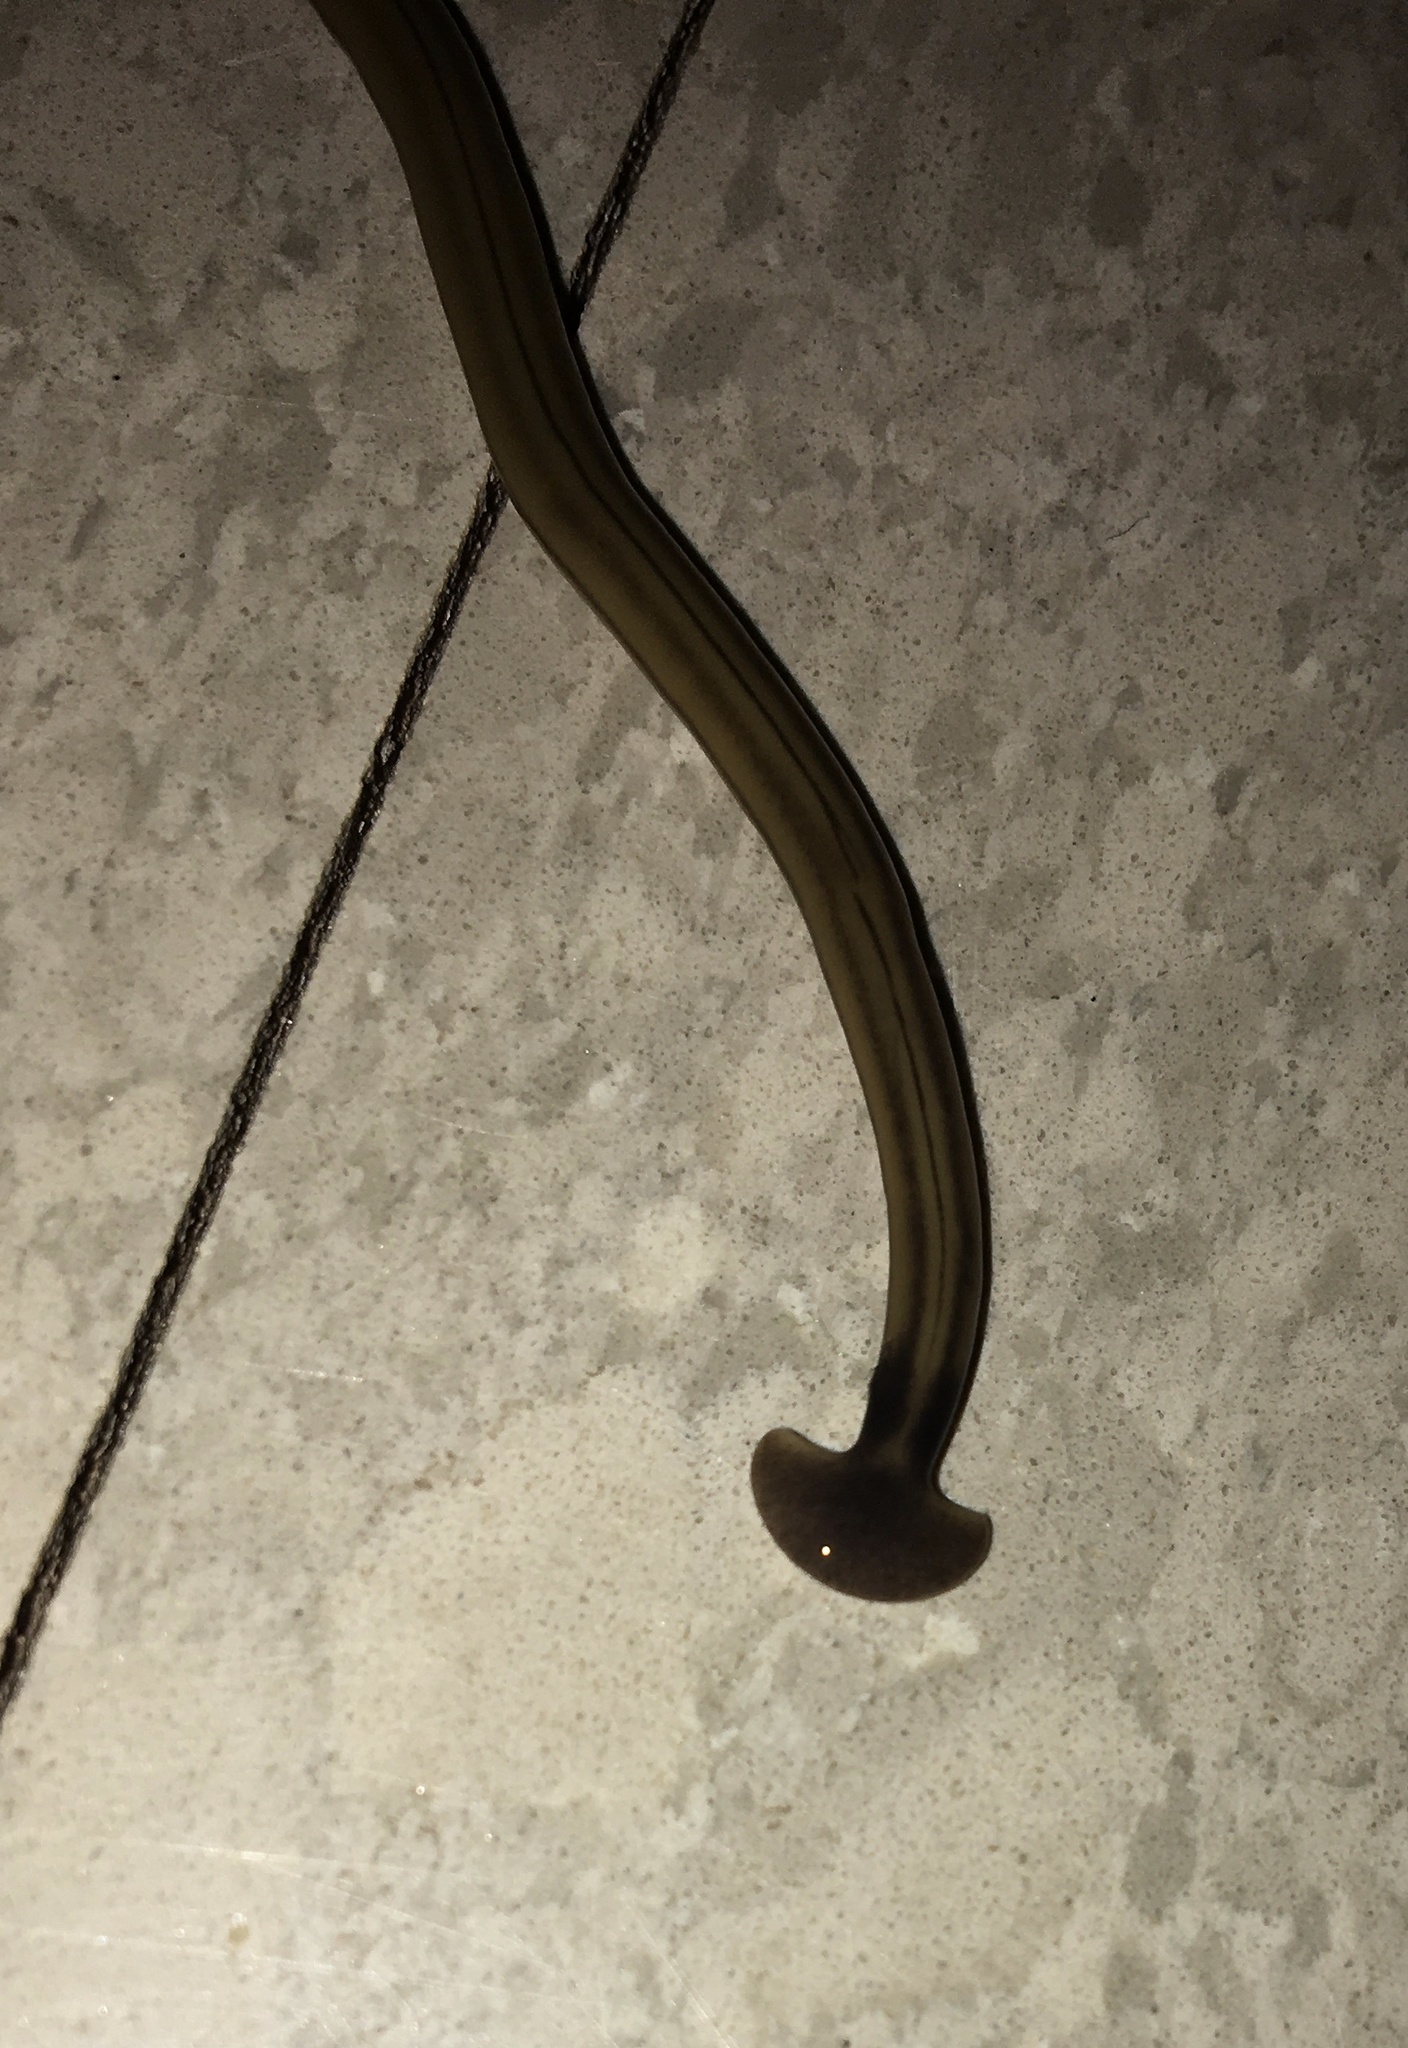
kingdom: Animalia
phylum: Platyhelminthes
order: Tricladida
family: Geoplanidae
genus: Bipalium
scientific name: Bipalium kewense
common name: Hammerhead flatworm
